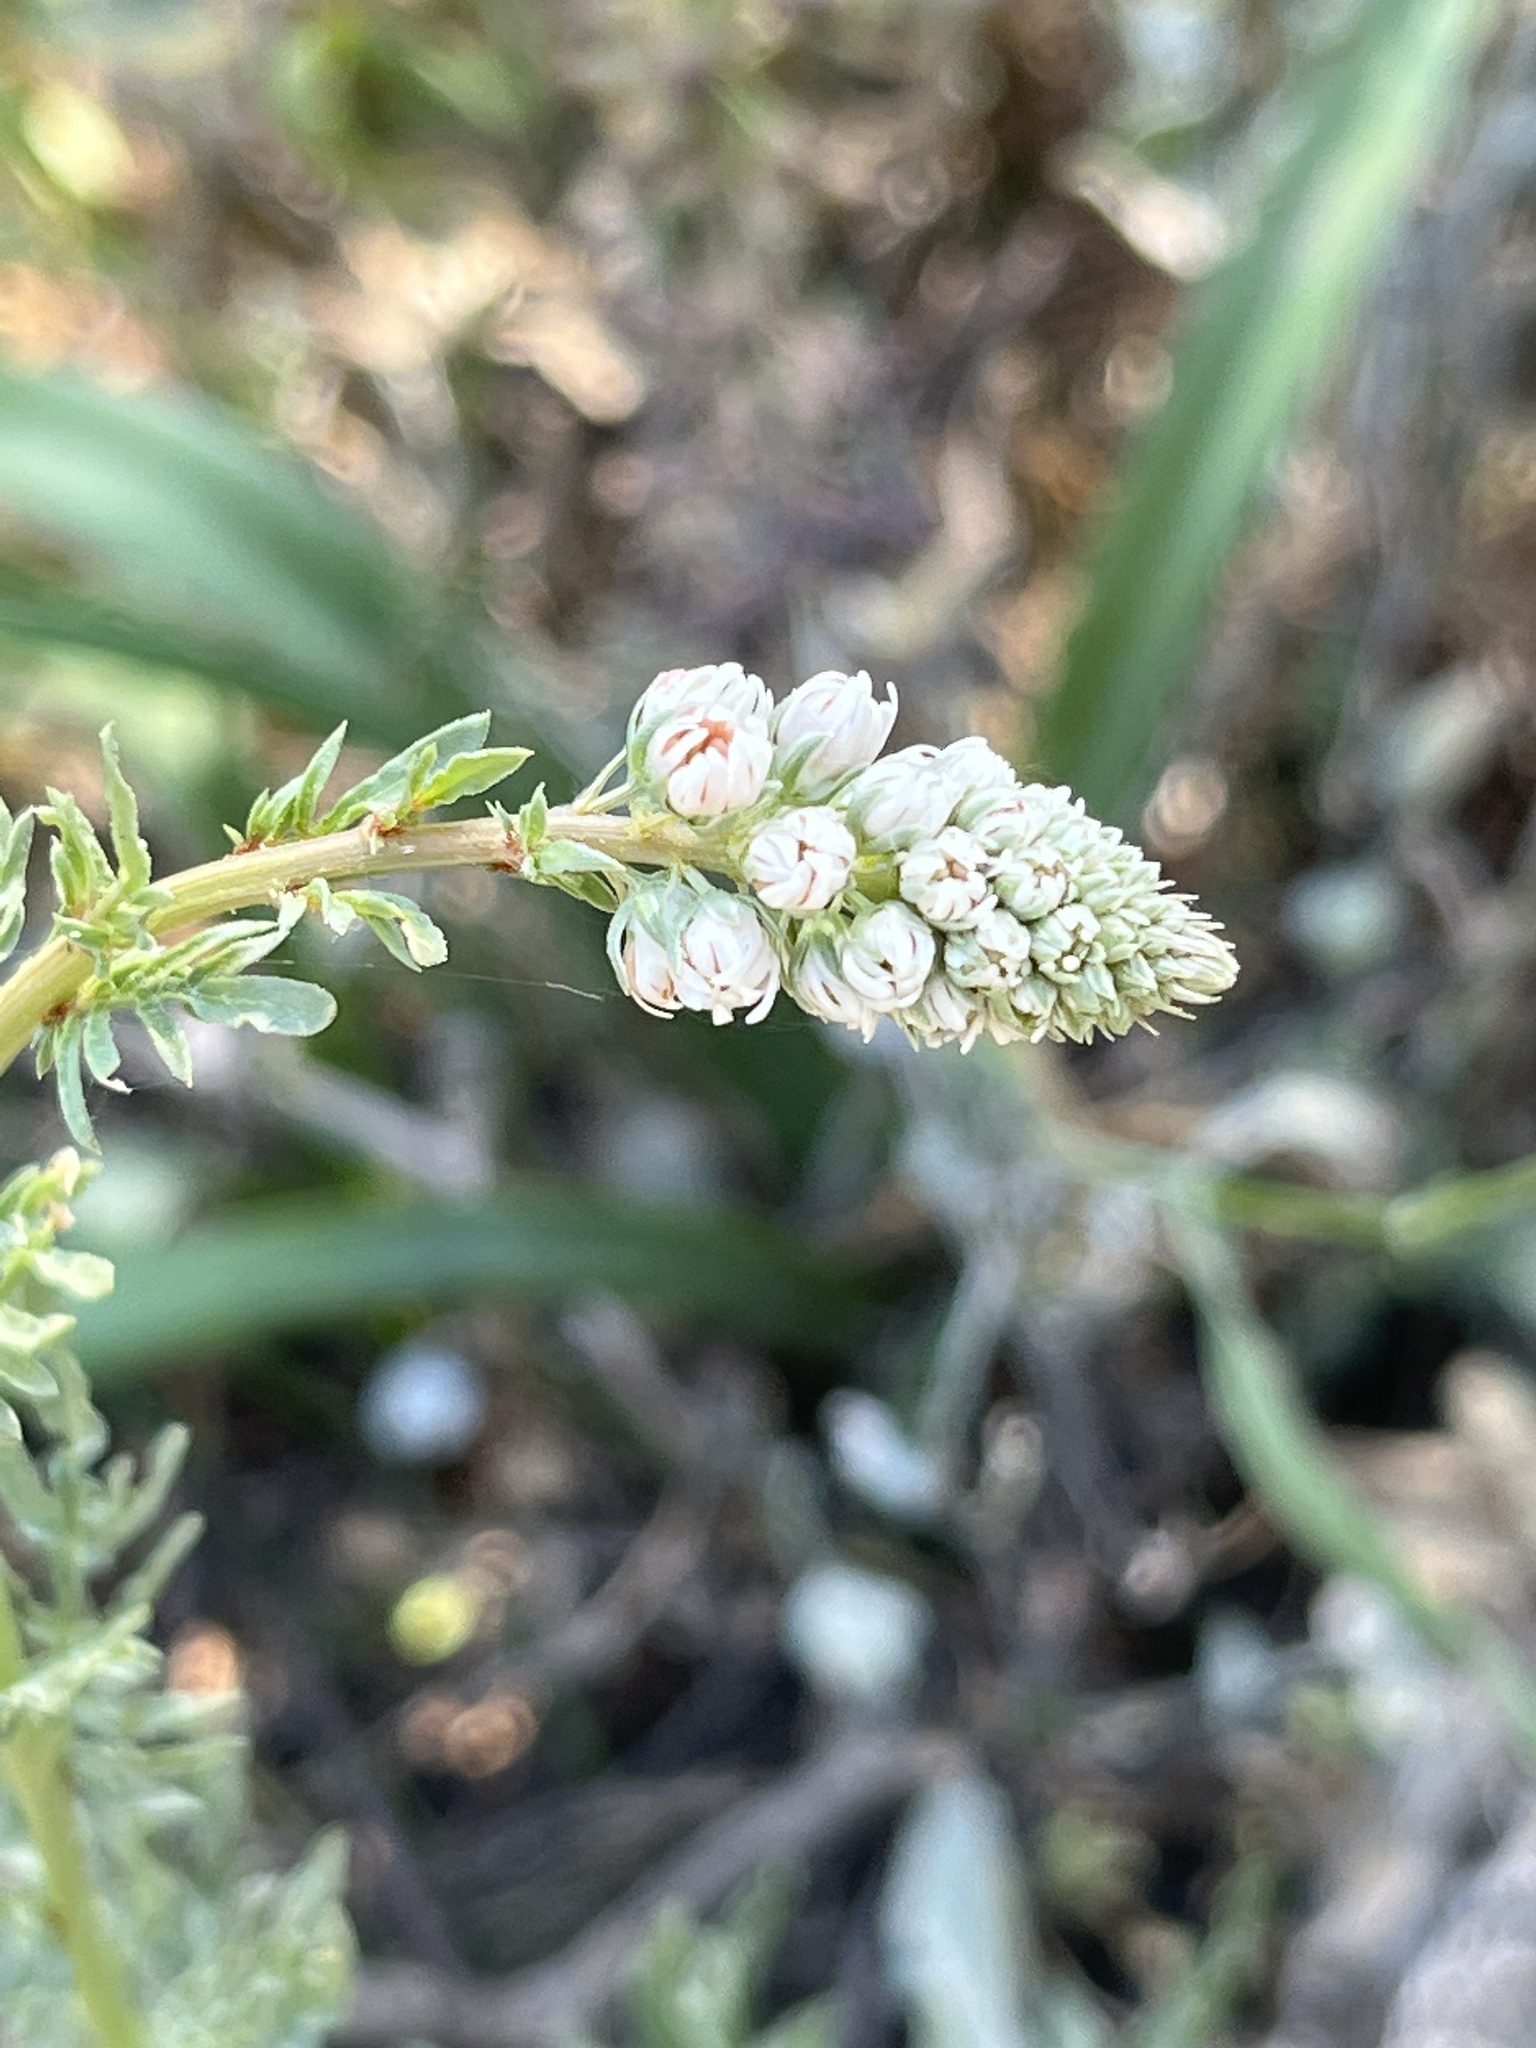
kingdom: Plantae
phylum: Tracheophyta
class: Magnoliopsida
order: Brassicales
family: Resedaceae
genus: Reseda
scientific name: Reseda alba
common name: White mignonette
